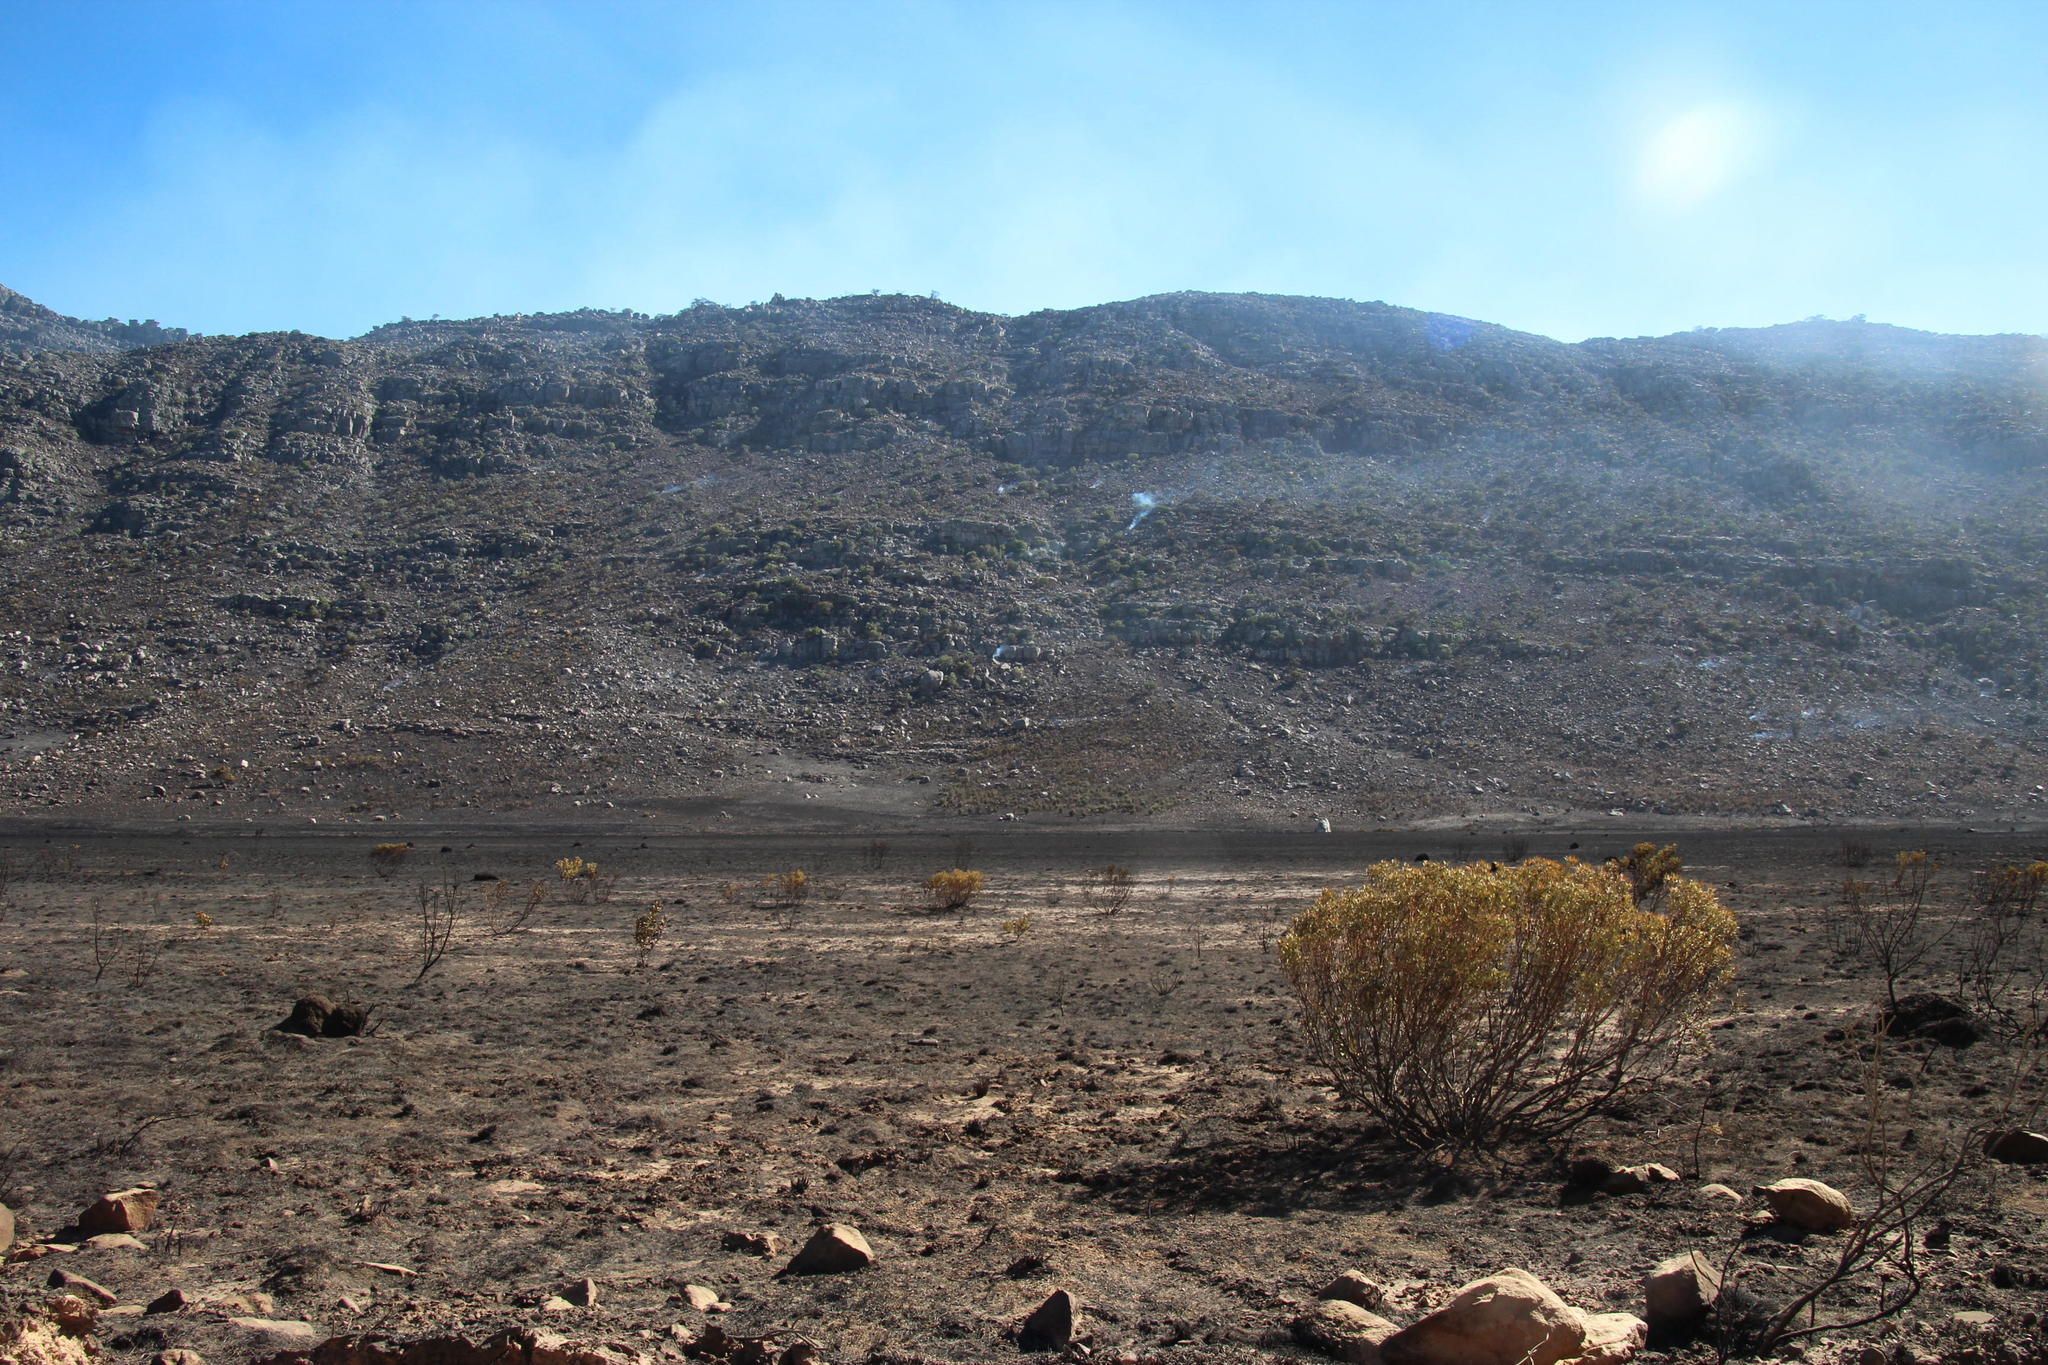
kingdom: Plantae
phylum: Tracheophyta
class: Magnoliopsida
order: Proteales
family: Proteaceae
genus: Leucadendron
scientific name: Leucadendron salignum
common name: Common sunshine conebush
